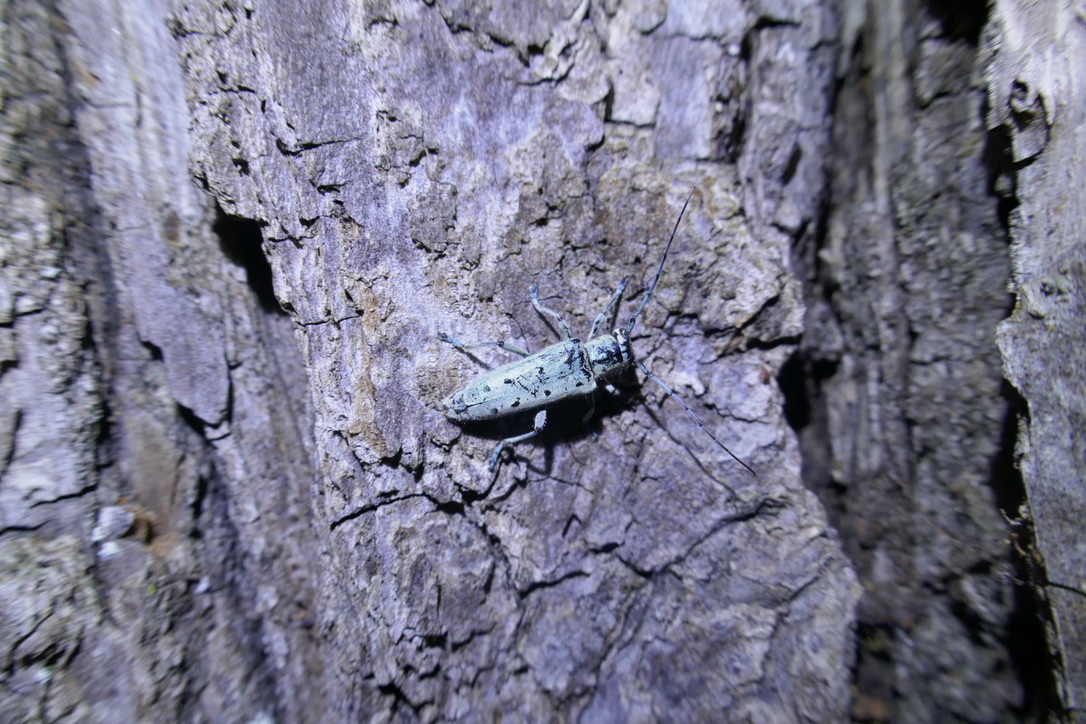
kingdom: Animalia
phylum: Arthropoda
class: Insecta
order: Coleoptera
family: Cerambycidae
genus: Saperda
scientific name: Saperda octopunctata
